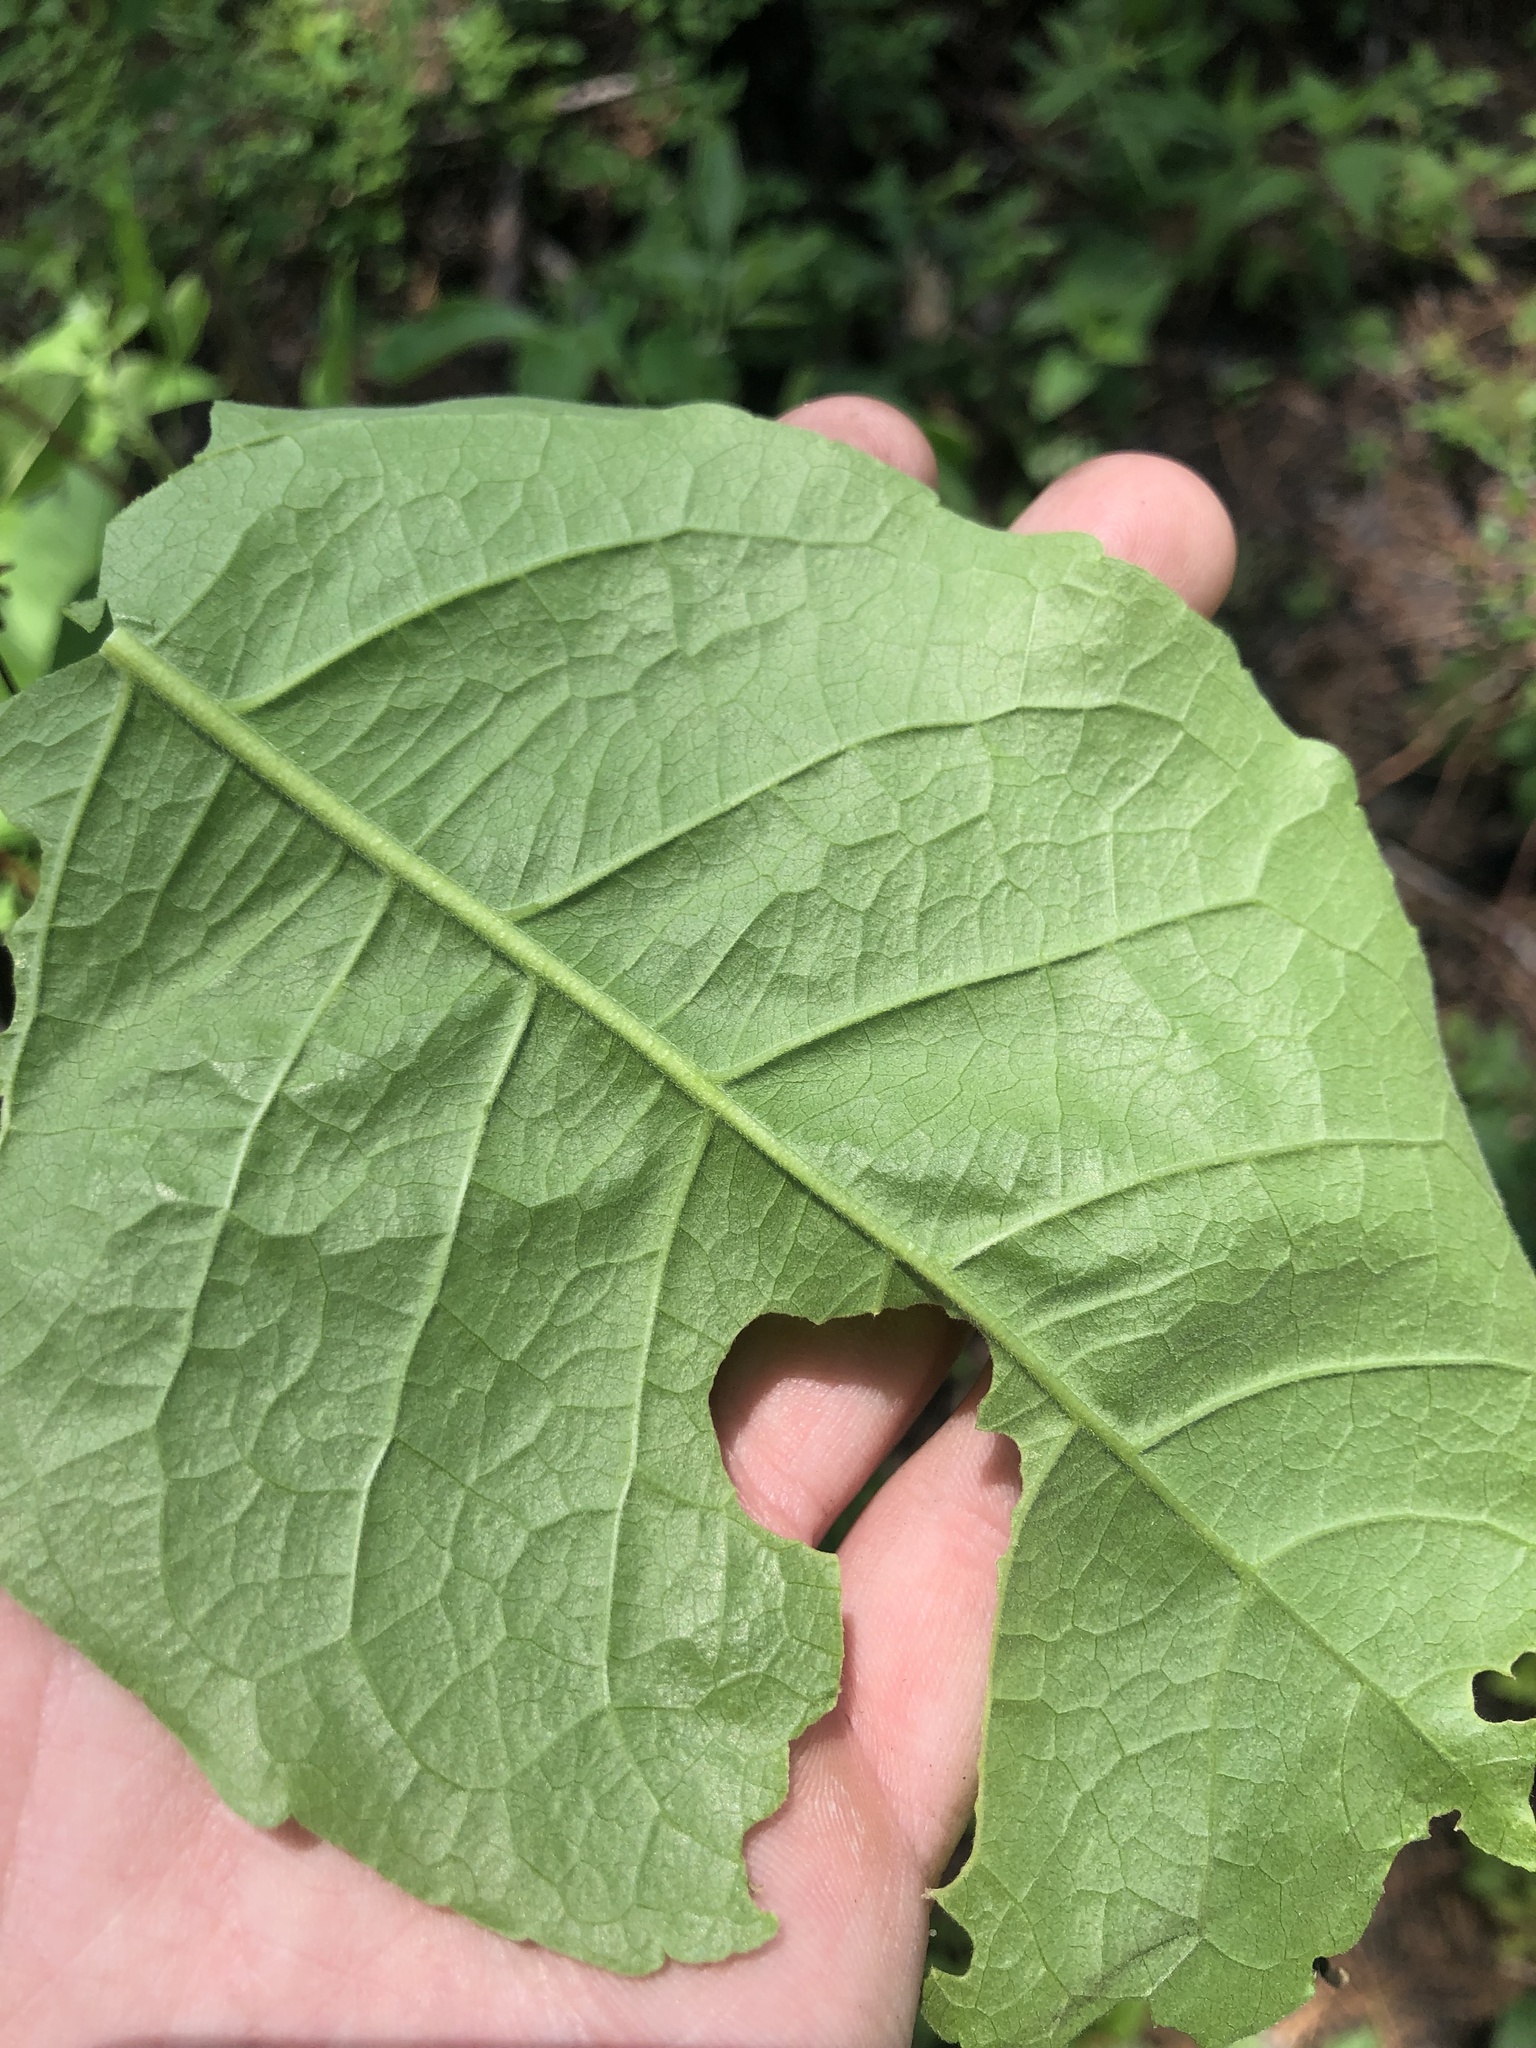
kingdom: Plantae
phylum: Tracheophyta
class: Magnoliopsida
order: Sapindales
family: Rutaceae
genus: Ptelea
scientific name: Ptelea trifoliata
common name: Common hop-tree
